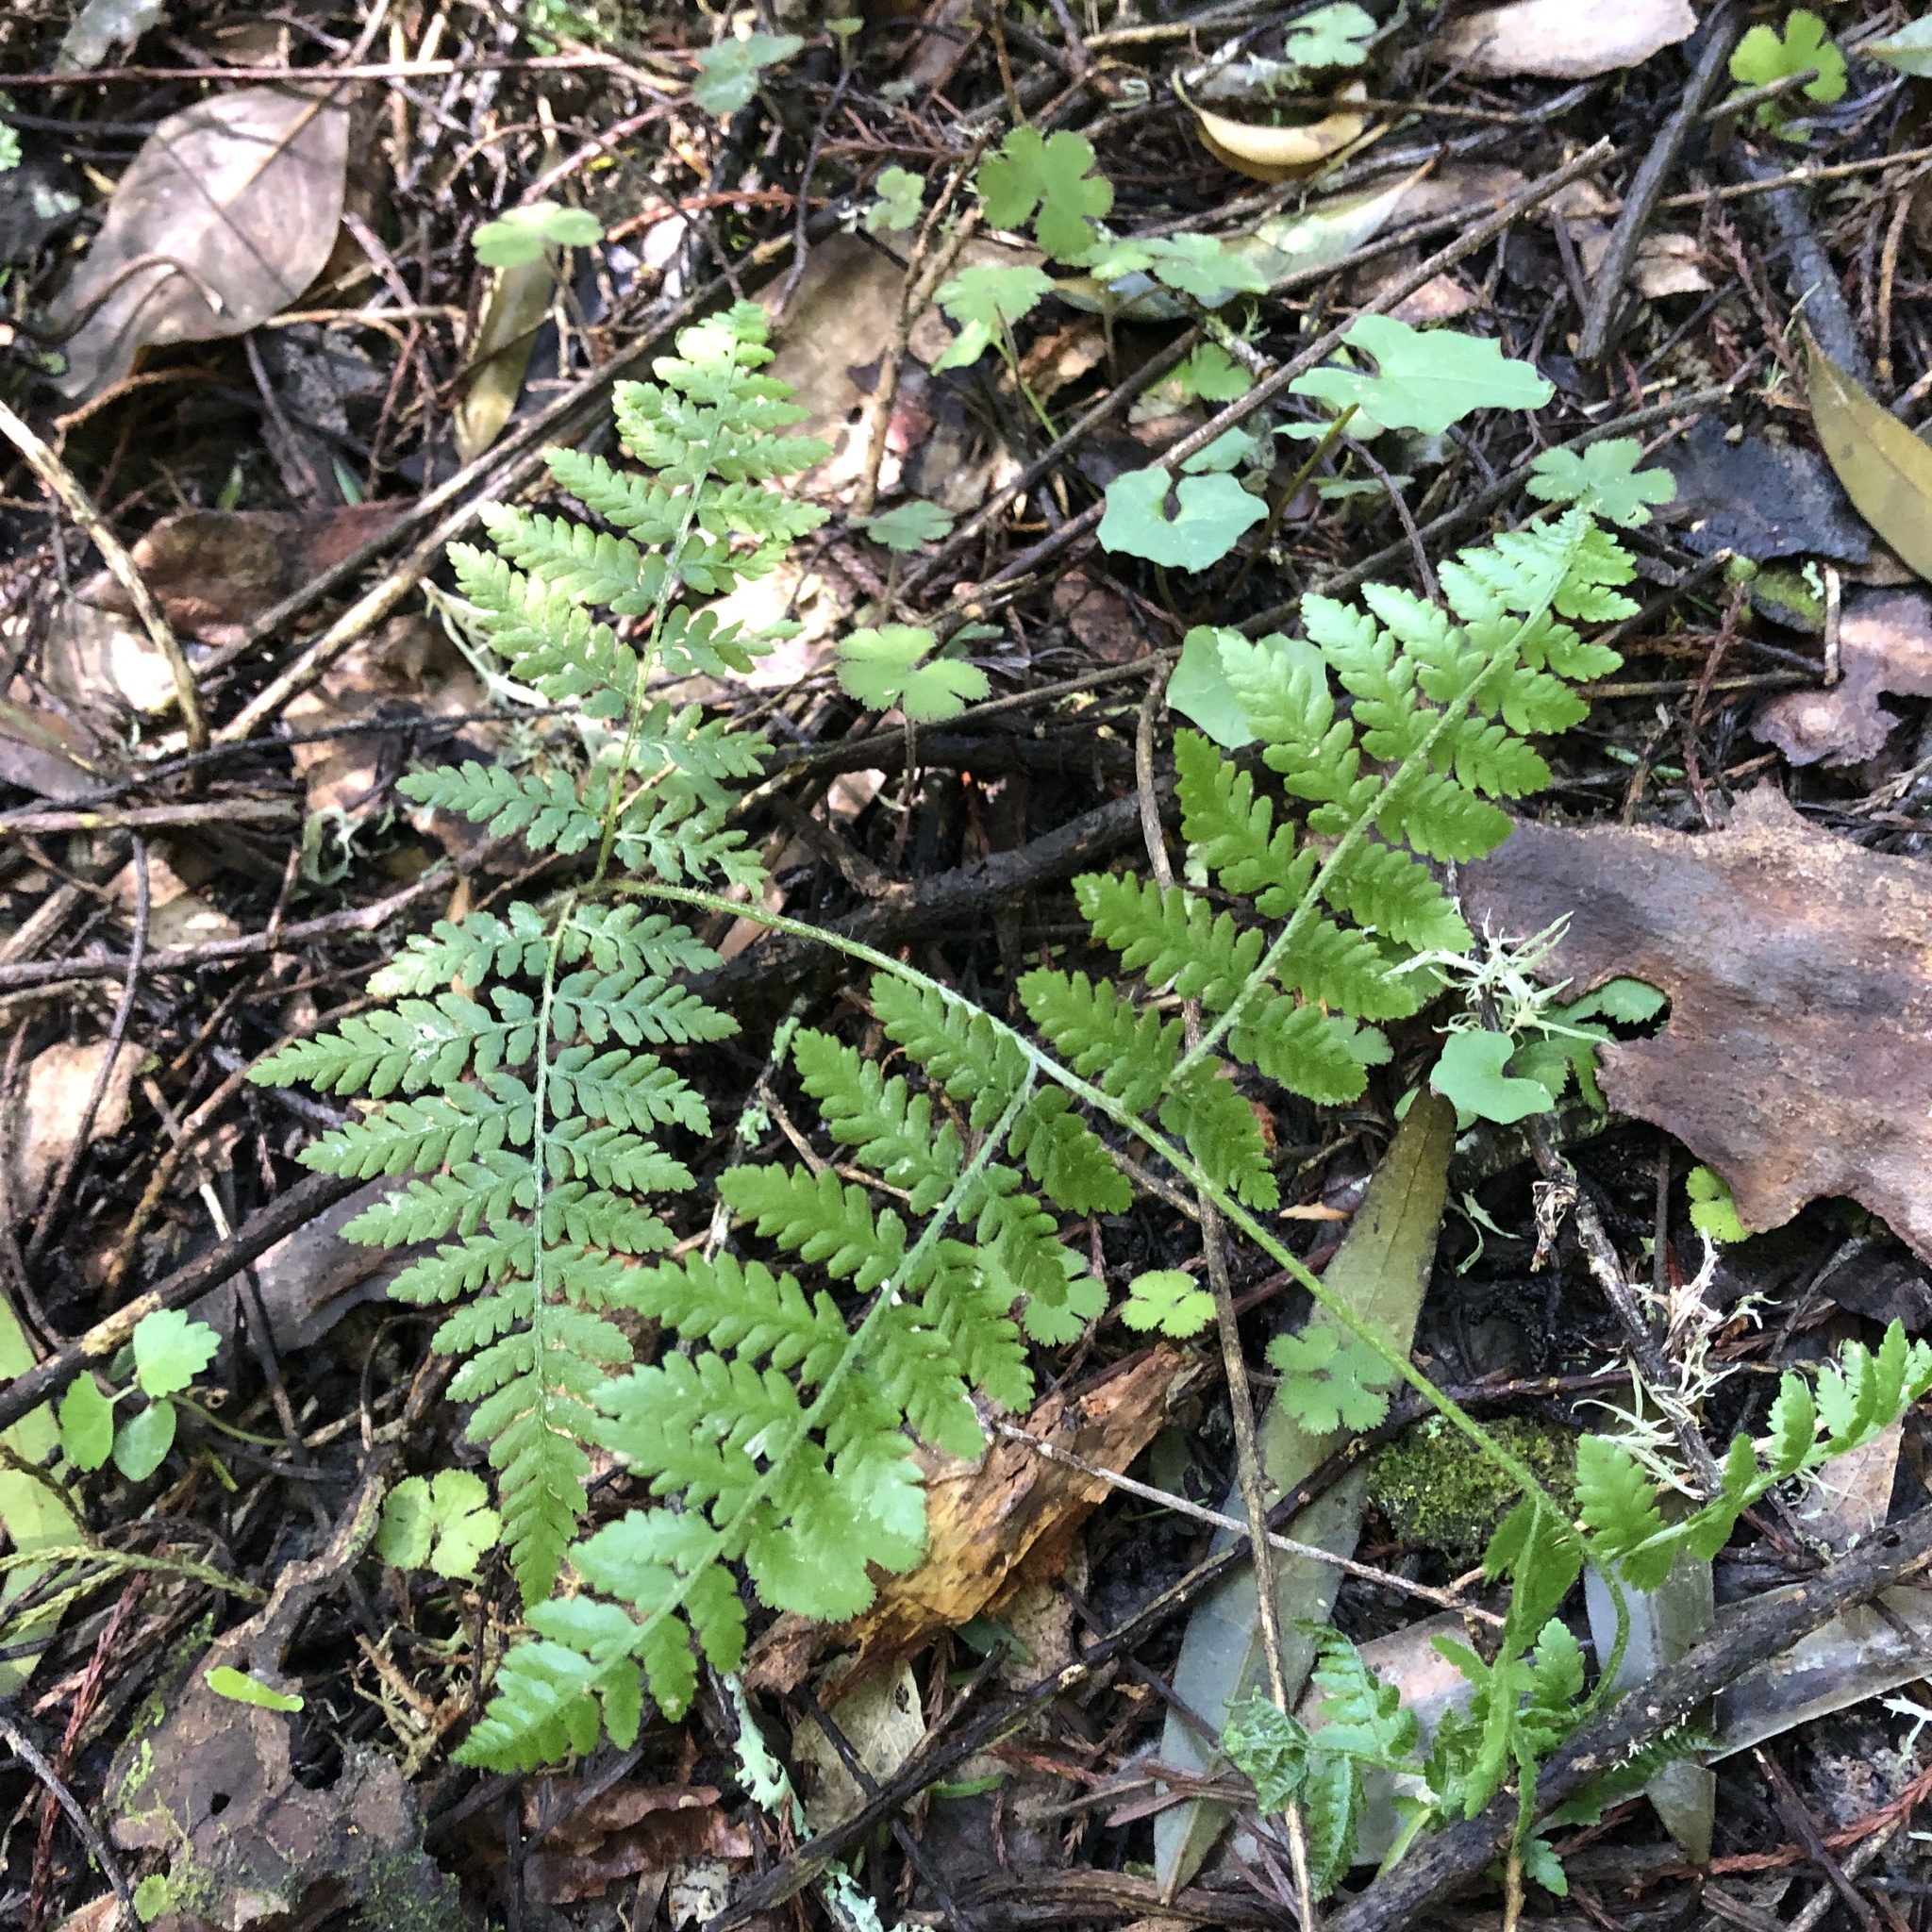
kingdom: Plantae
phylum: Tracheophyta
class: Polypodiopsida
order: Polypodiales
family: Dennstaedtiaceae
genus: Hypolepis
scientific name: Hypolepis ambigua
